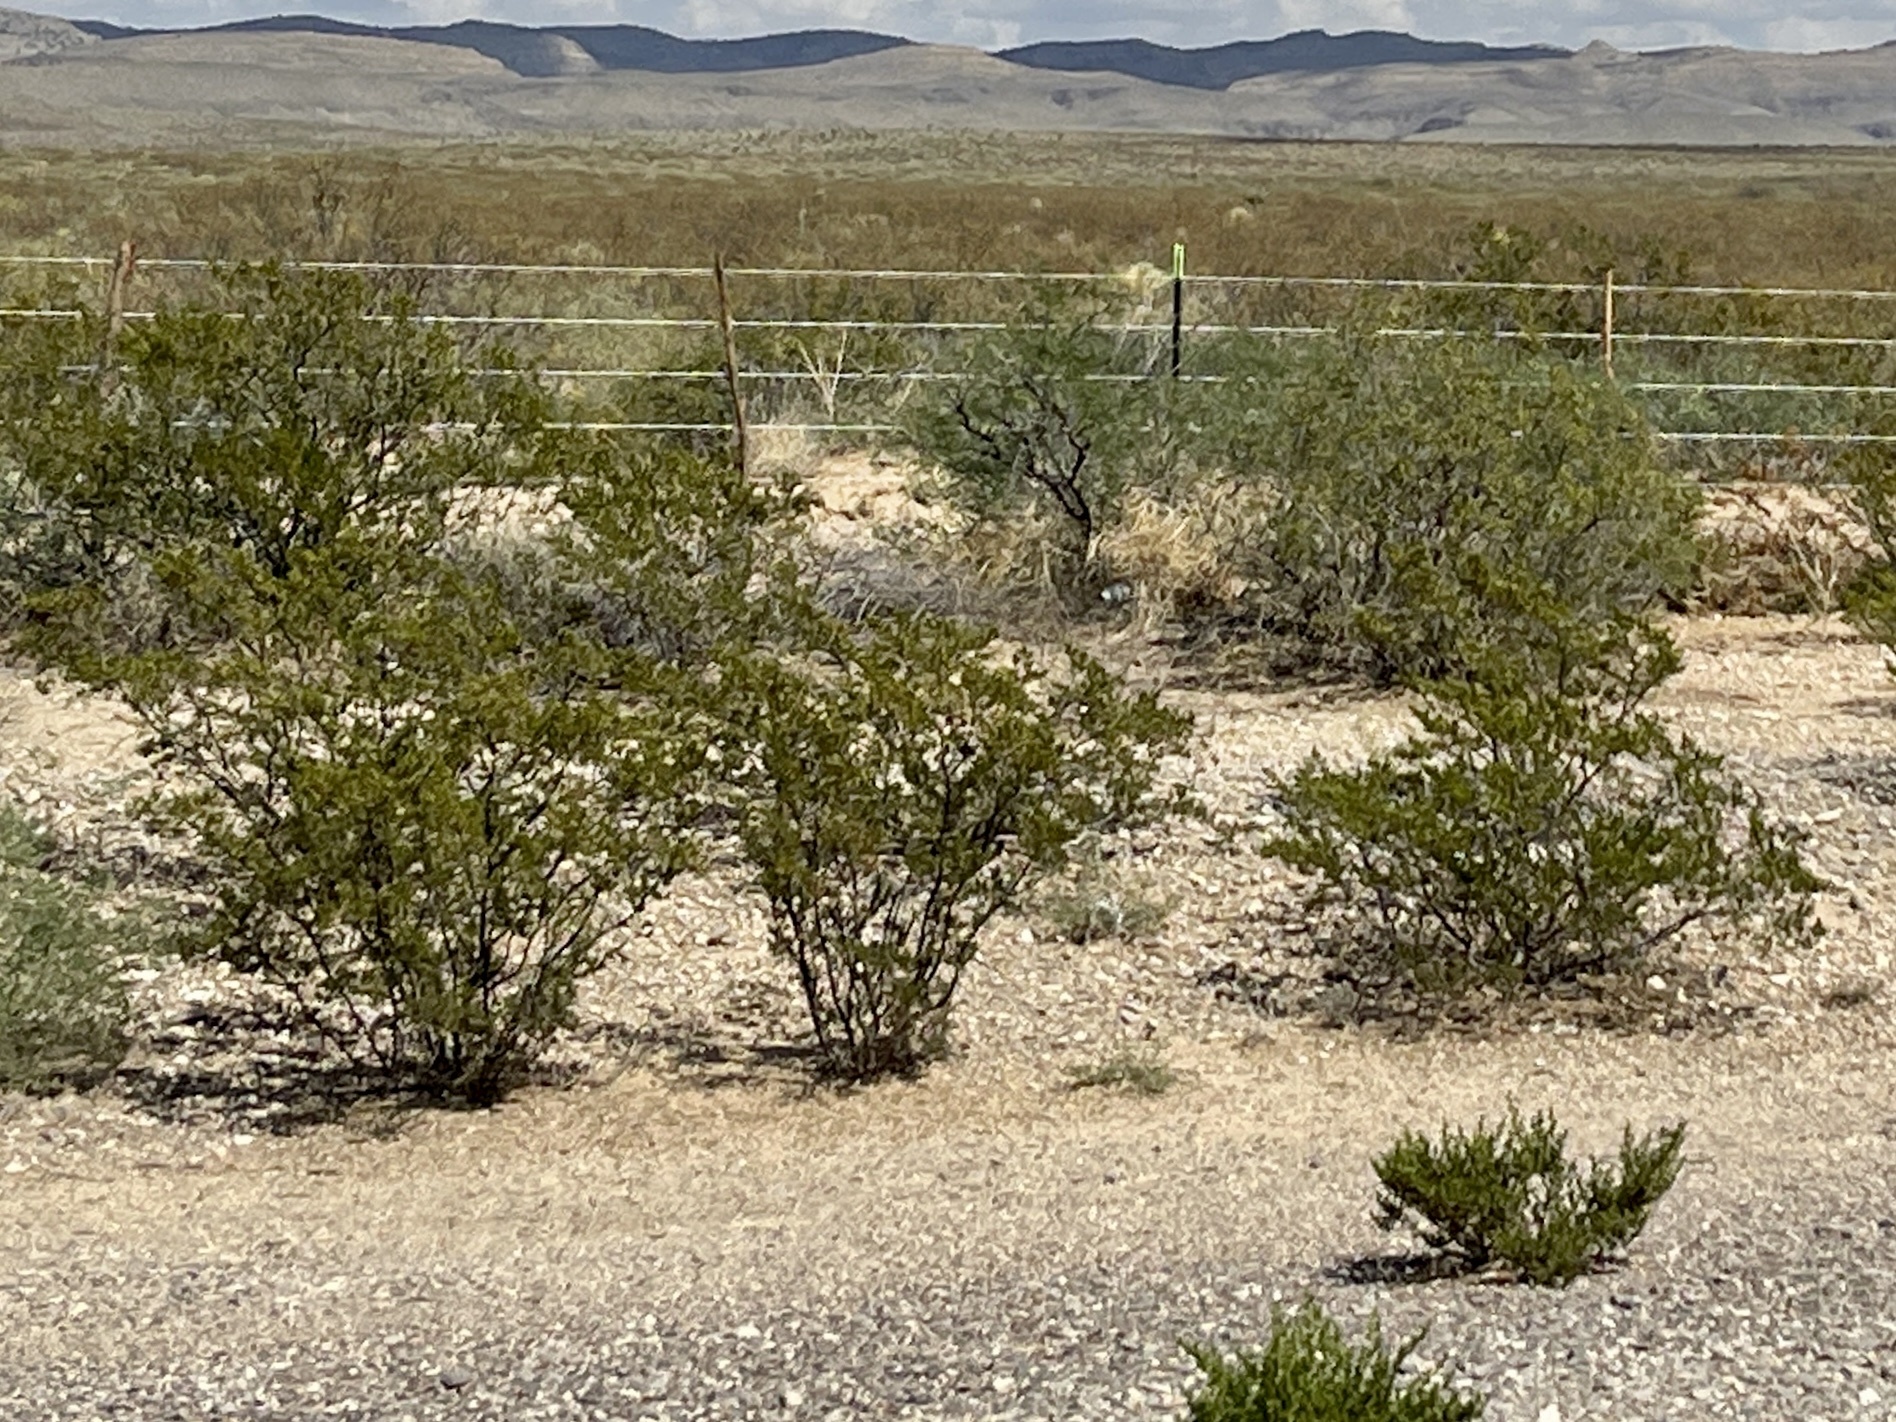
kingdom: Plantae
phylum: Tracheophyta
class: Magnoliopsida
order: Zygophyllales
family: Zygophyllaceae
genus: Larrea
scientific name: Larrea tridentata
